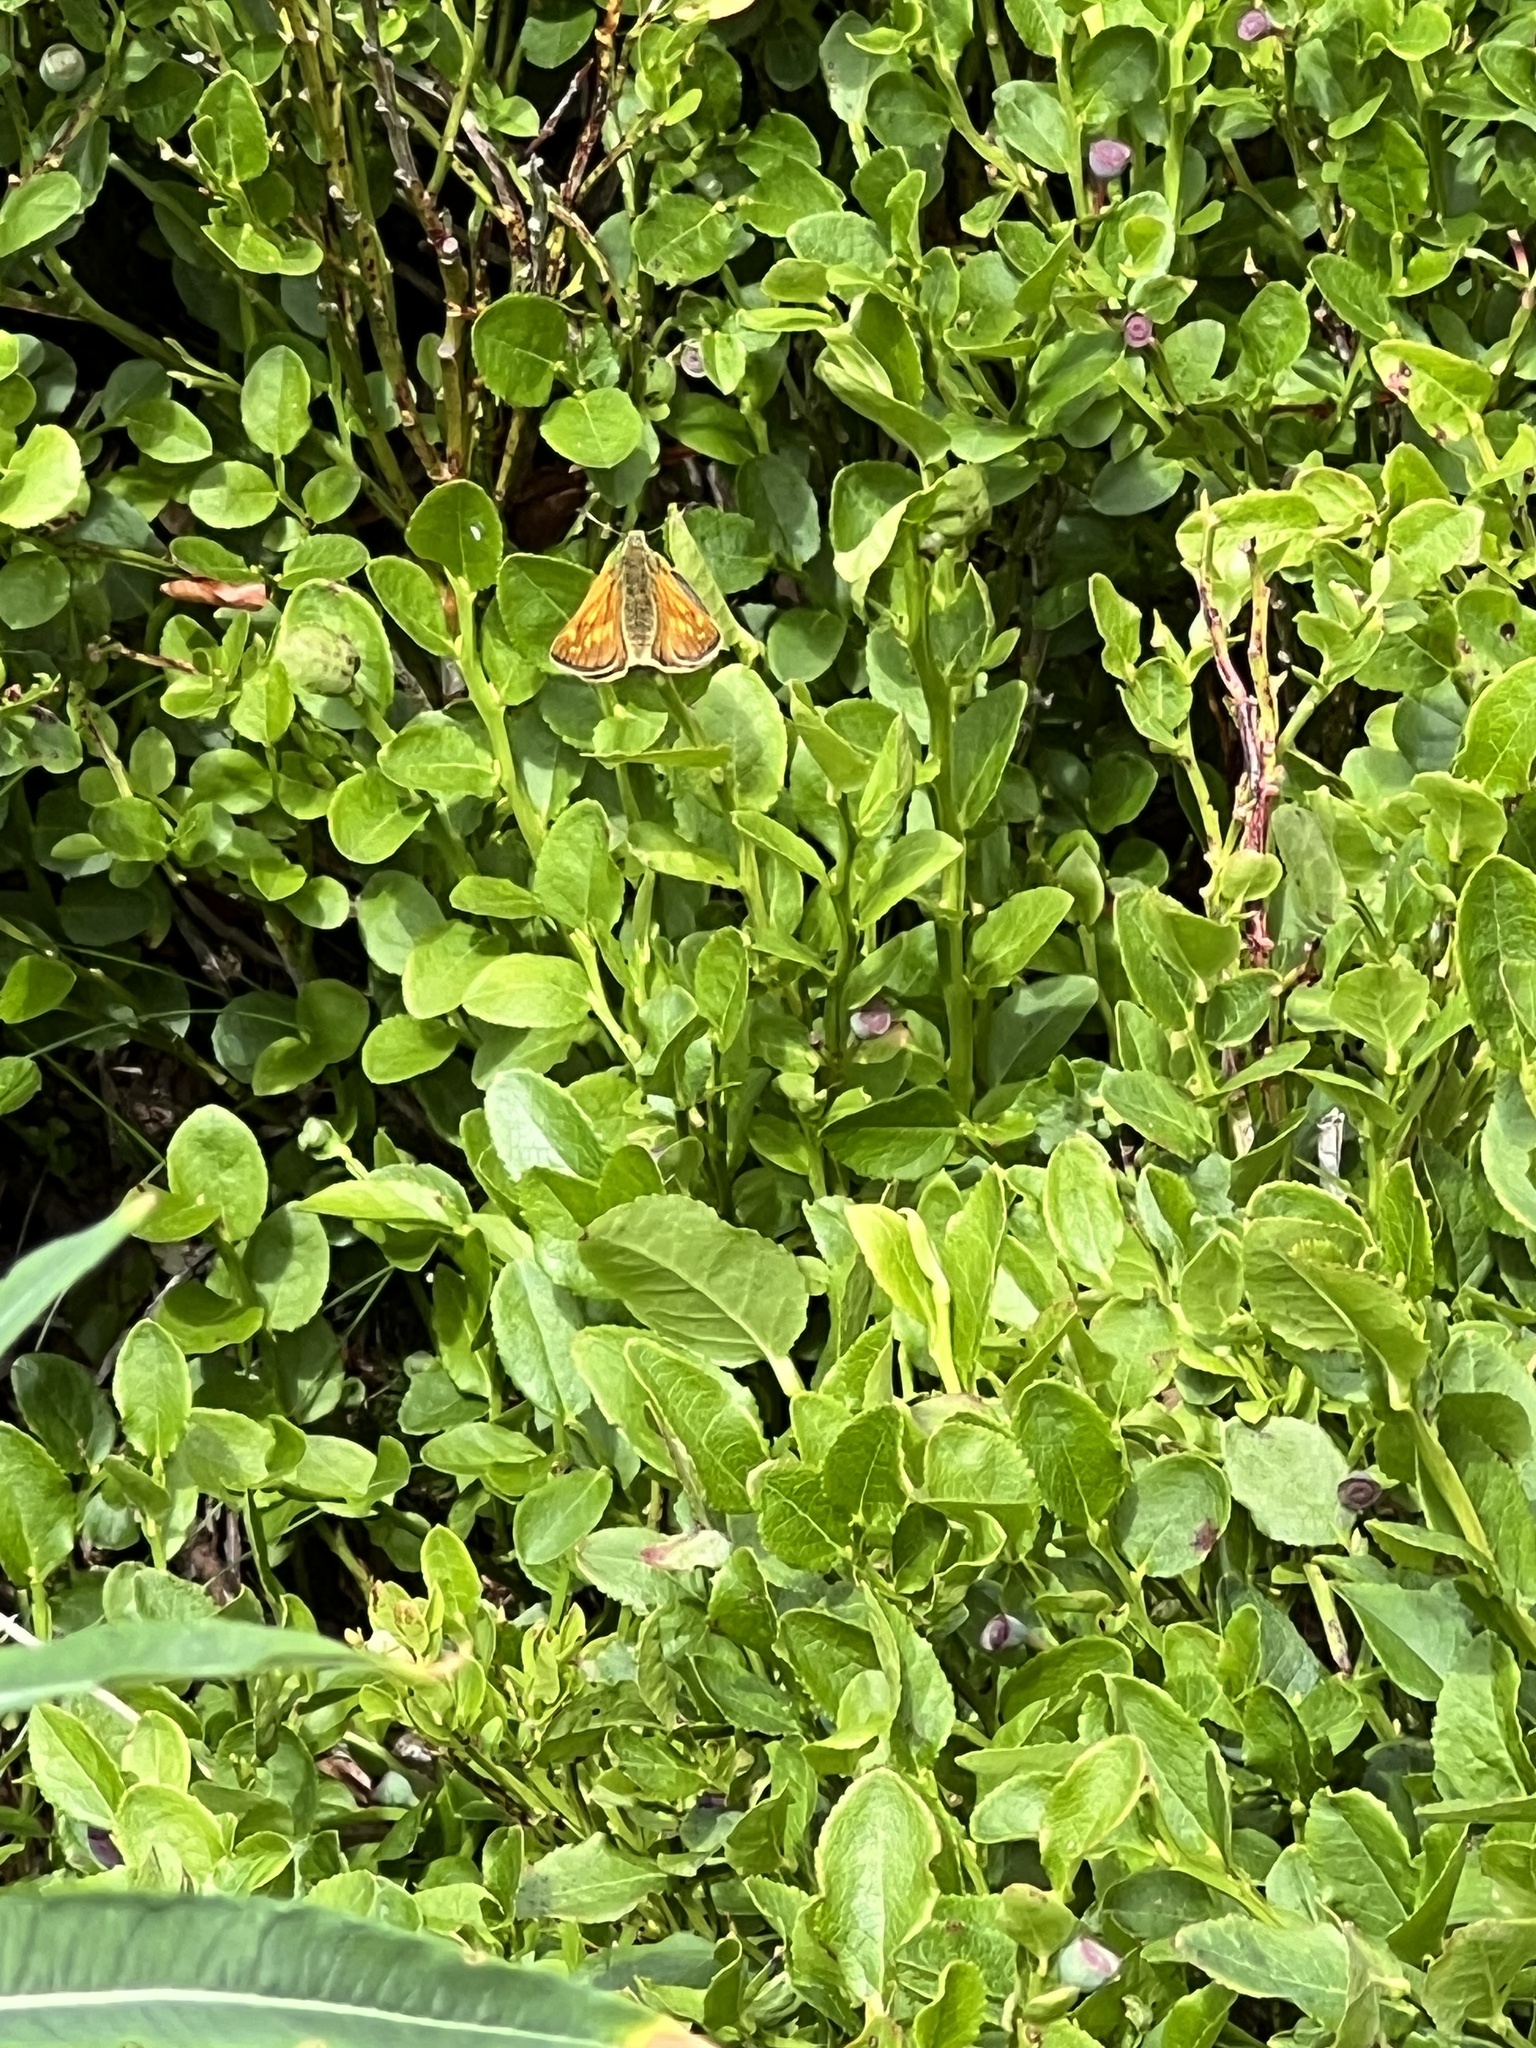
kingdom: Animalia
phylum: Arthropoda
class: Insecta
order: Lepidoptera
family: Hesperiidae
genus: Ochlodes
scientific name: Ochlodes venata
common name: Large skipper
